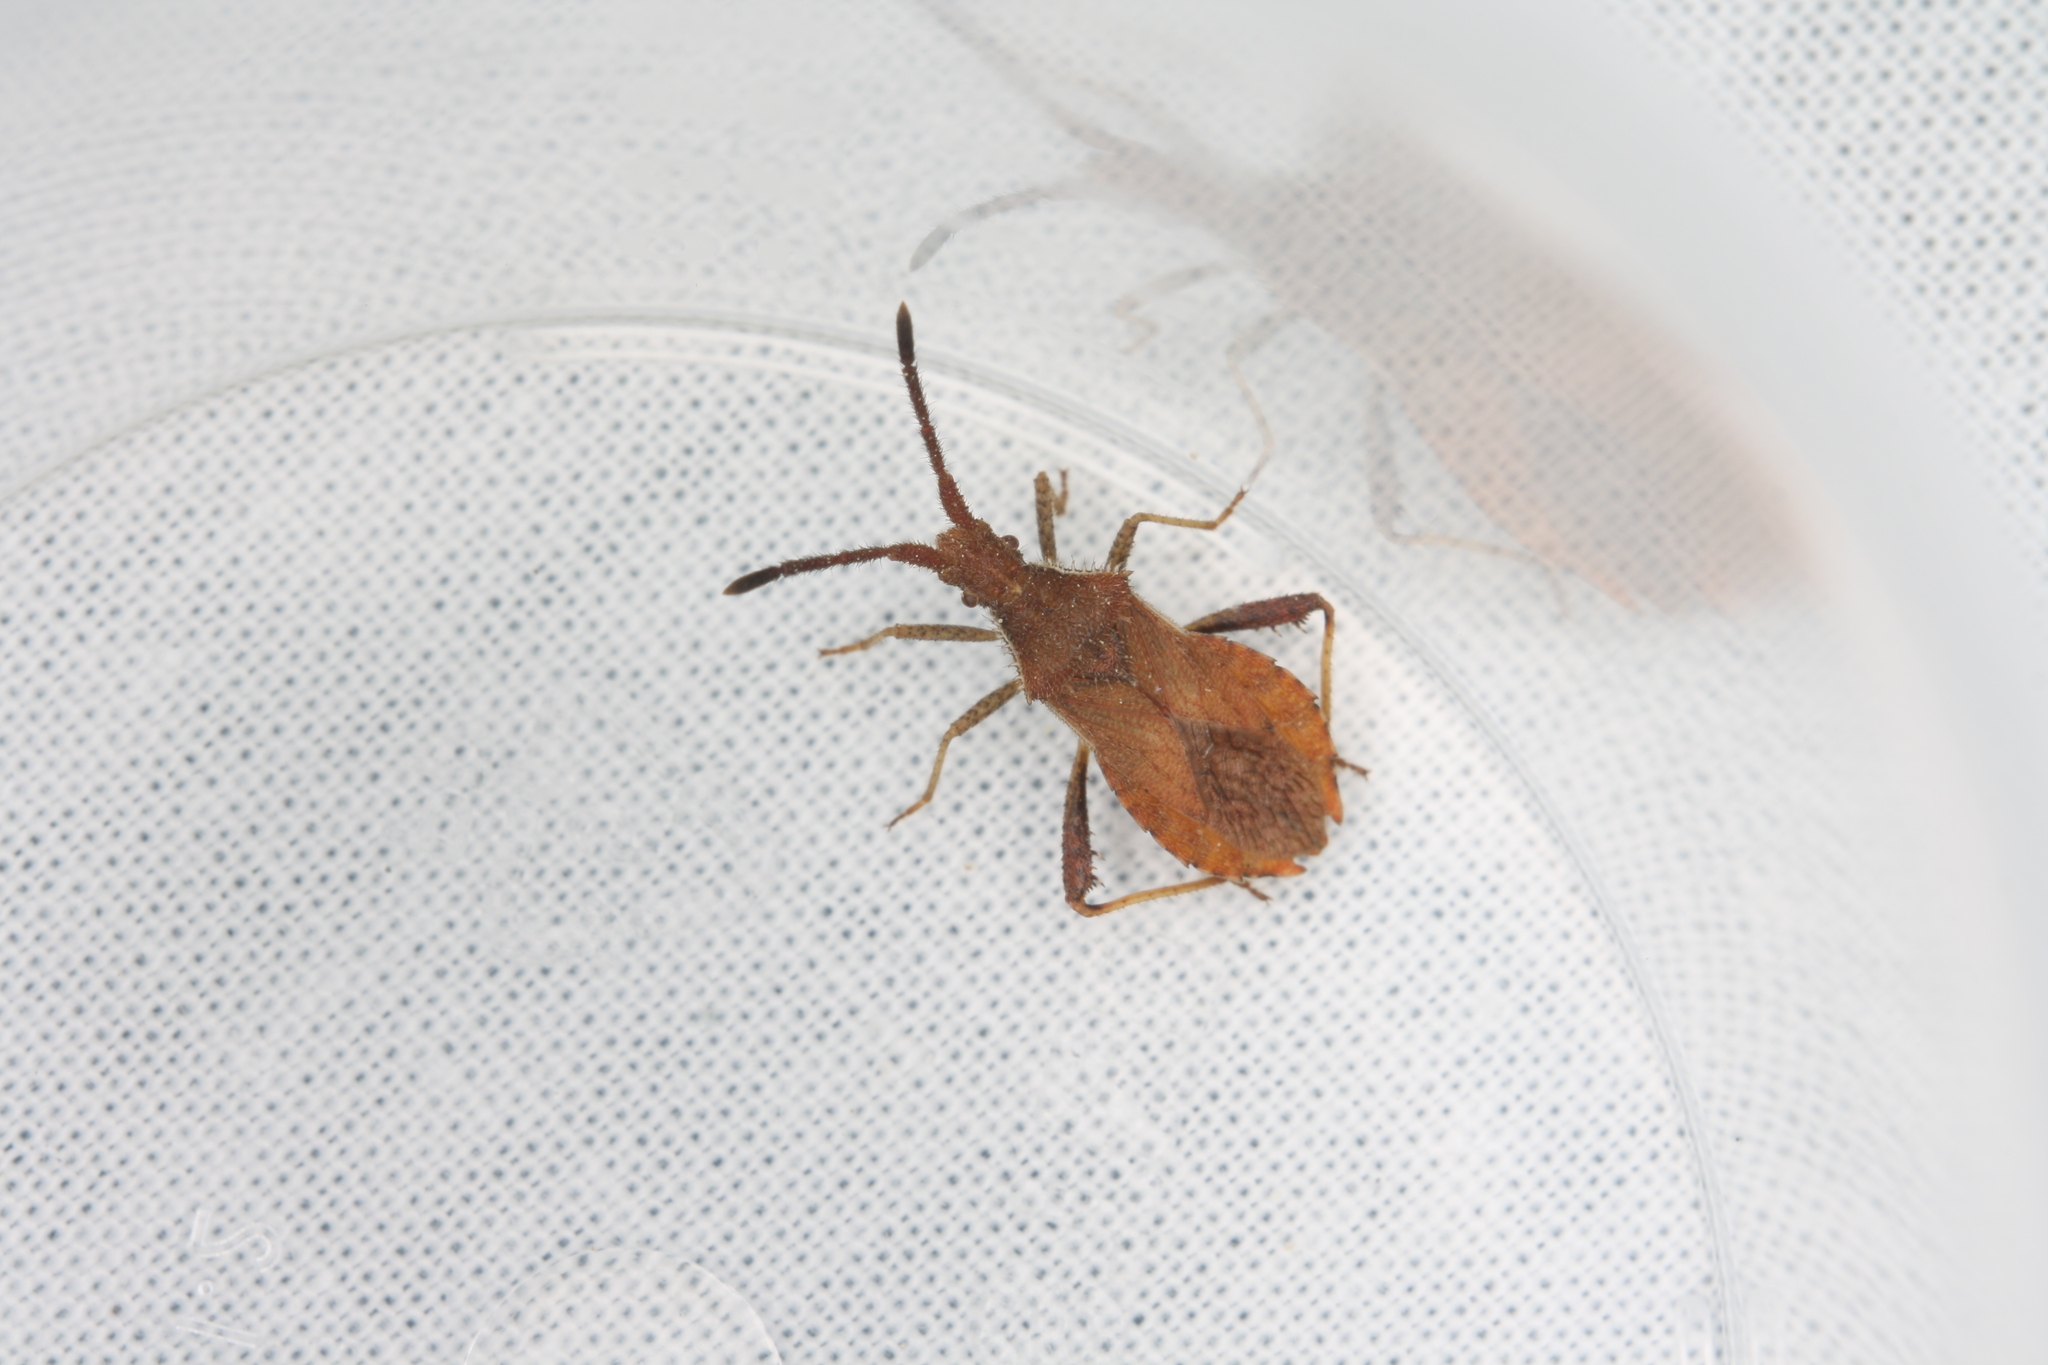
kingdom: Animalia
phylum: Arthropoda
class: Insecta
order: Hemiptera
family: Coreidae
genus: Coriomeris
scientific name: Coriomeris denticulatus
